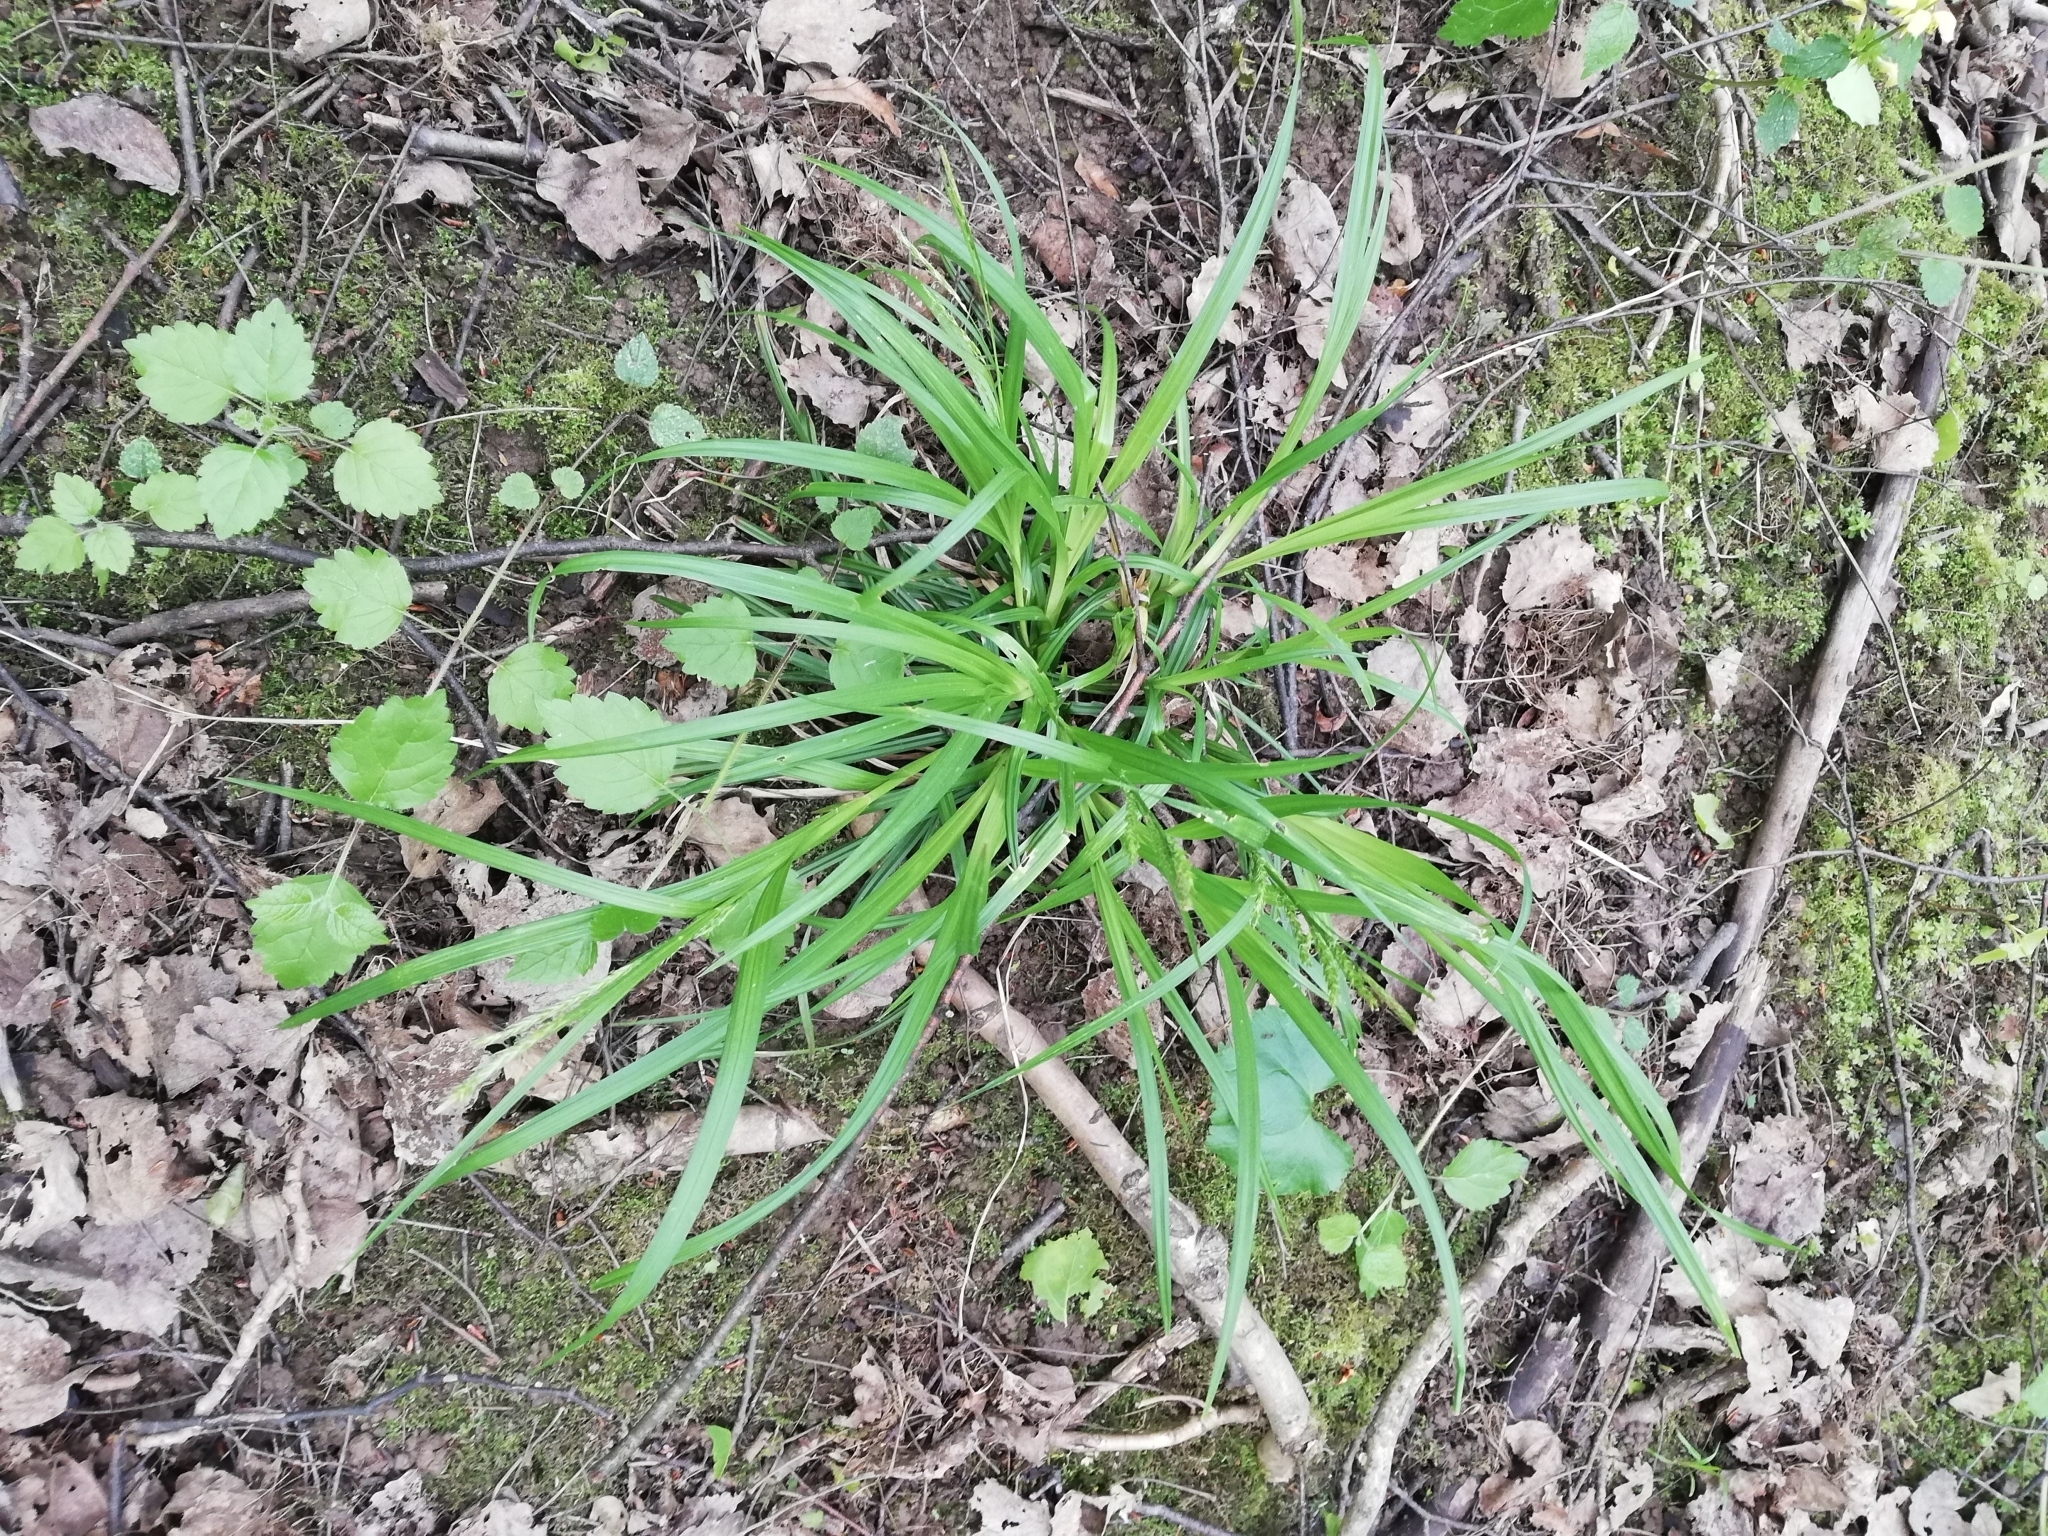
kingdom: Plantae
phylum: Tracheophyta
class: Liliopsida
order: Poales
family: Cyperaceae
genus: Carex
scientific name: Carex sylvatica
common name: Wood-sedge
